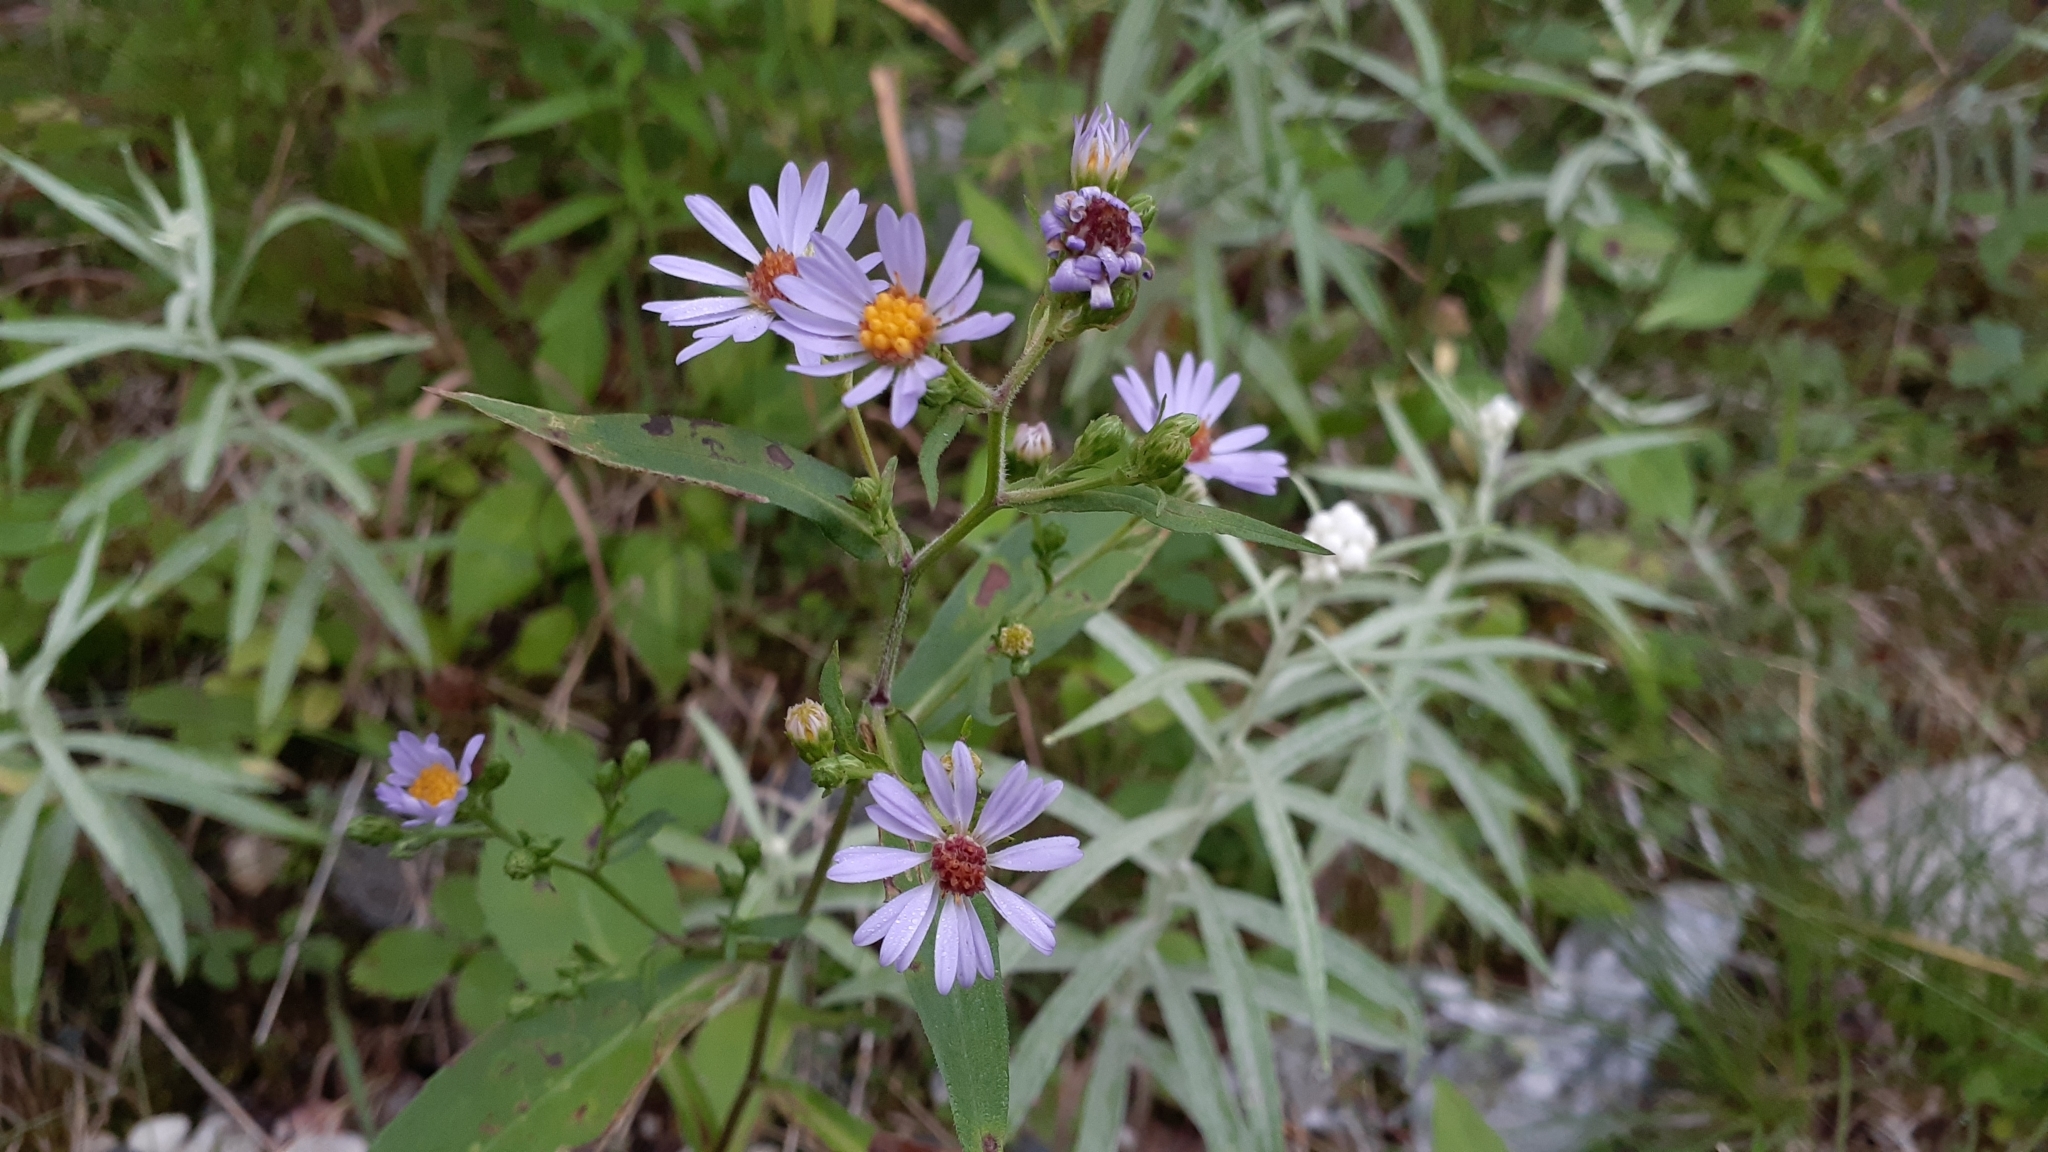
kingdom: Plantae
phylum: Tracheophyta
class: Magnoliopsida
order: Asterales
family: Asteraceae
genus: Symphyotrichum
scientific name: Symphyotrichum ciliolatum
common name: Fringed blue aster
